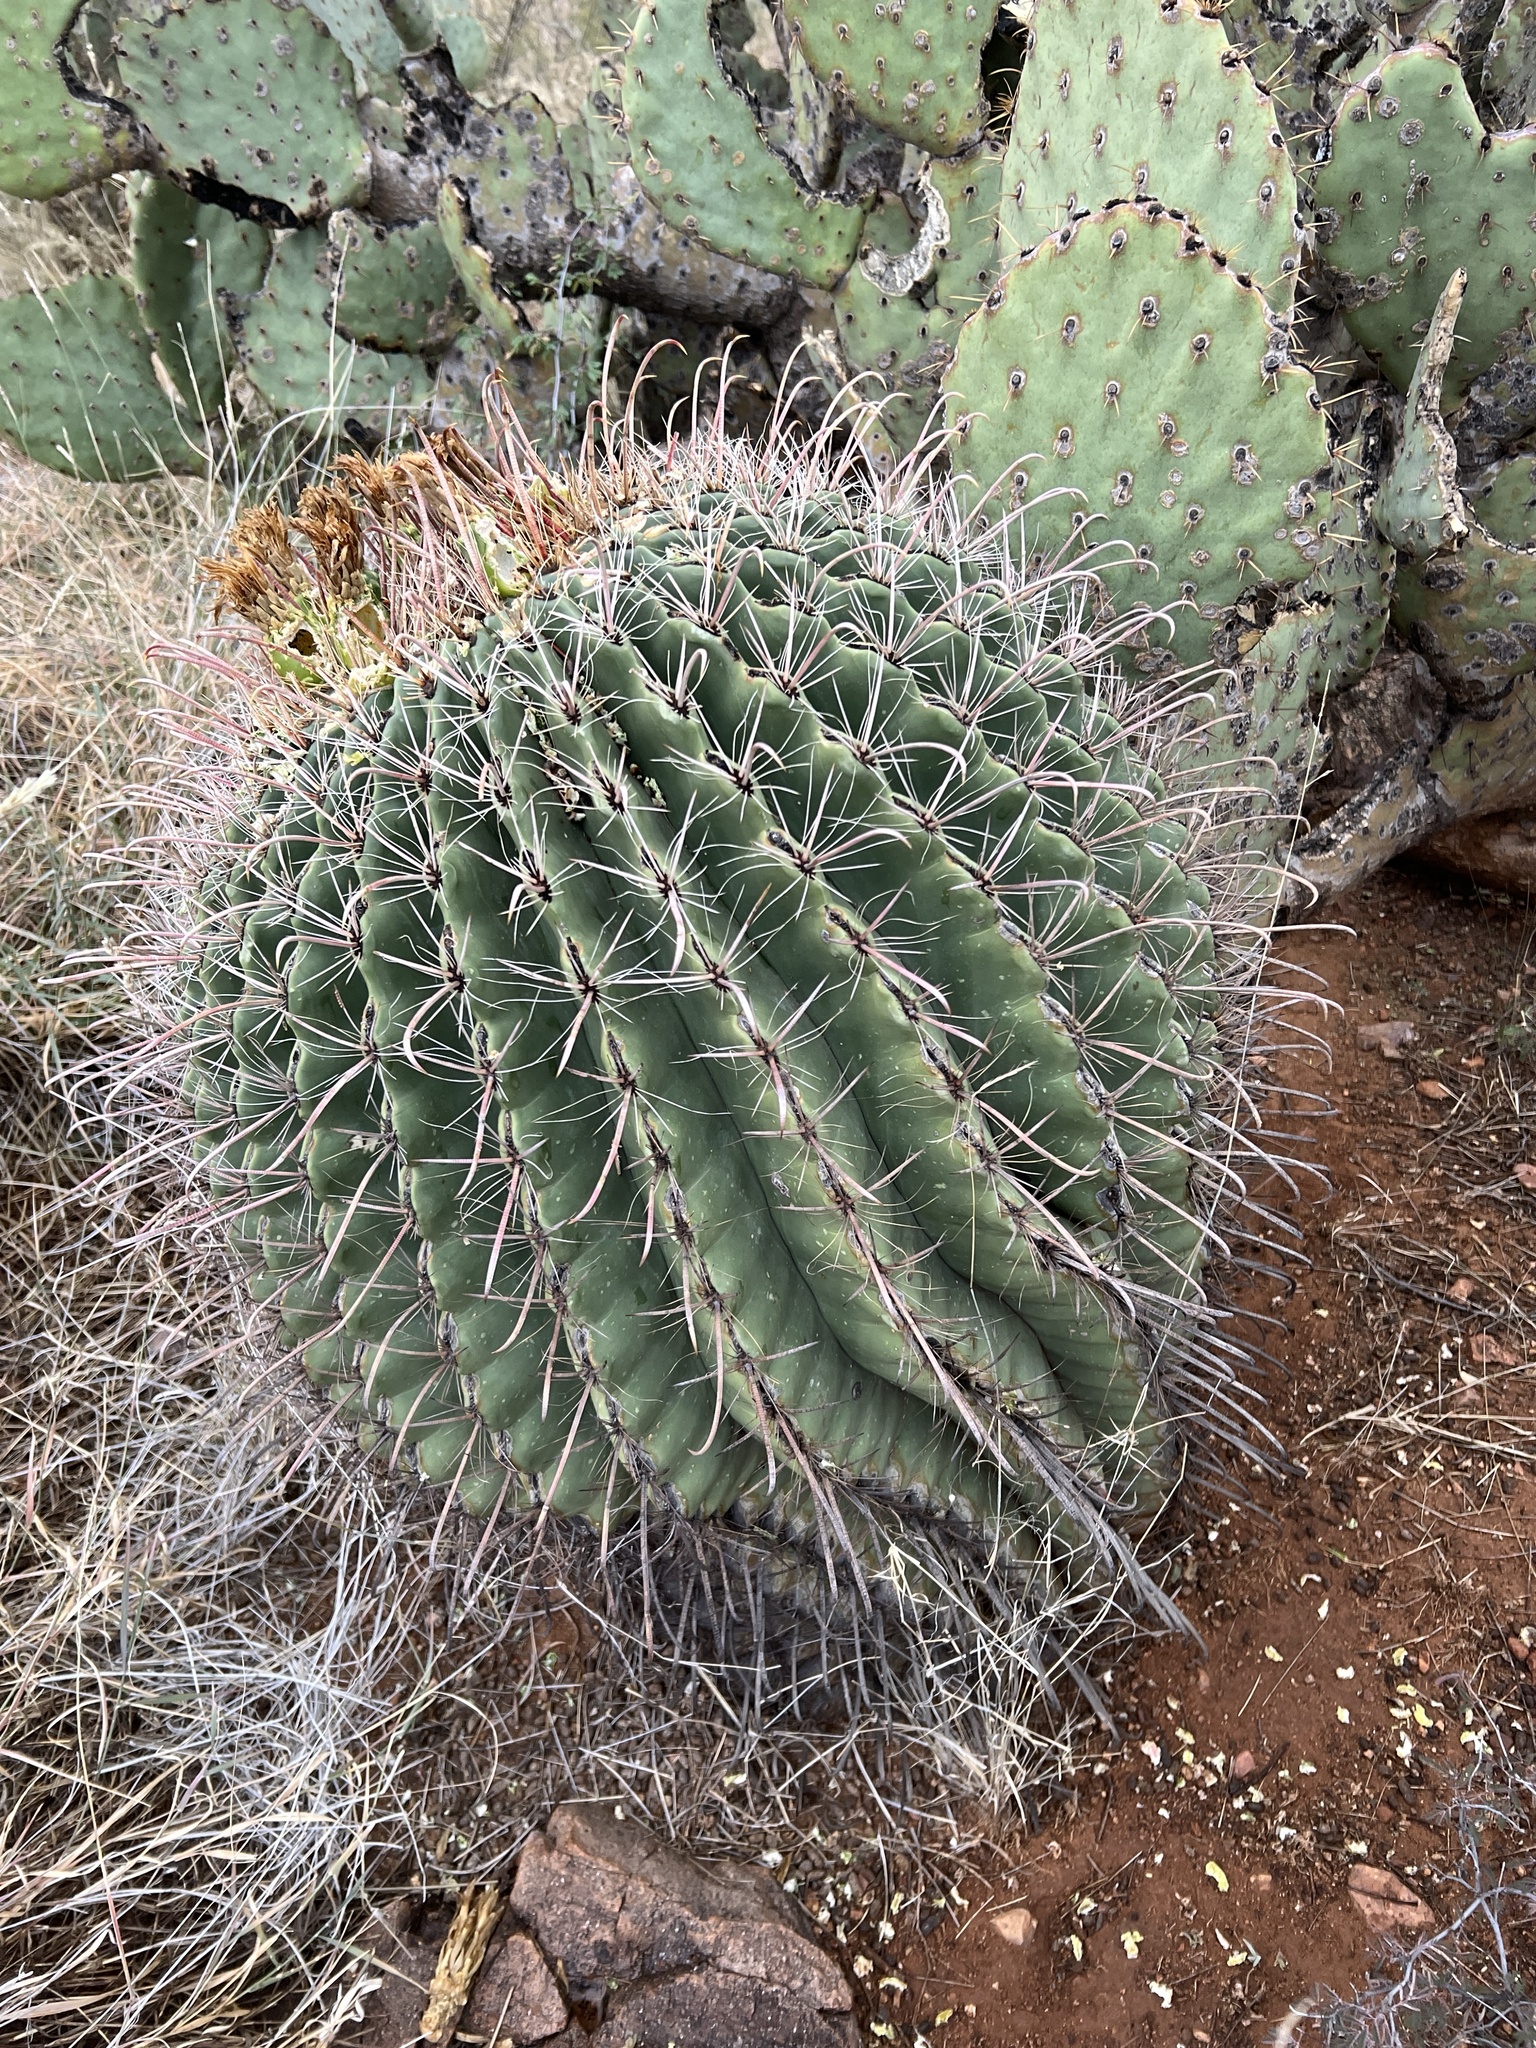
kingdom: Plantae
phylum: Tracheophyta
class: Magnoliopsida
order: Caryophyllales
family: Cactaceae
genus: Ferocactus
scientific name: Ferocactus wislizeni
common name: Candy barrel cactus
